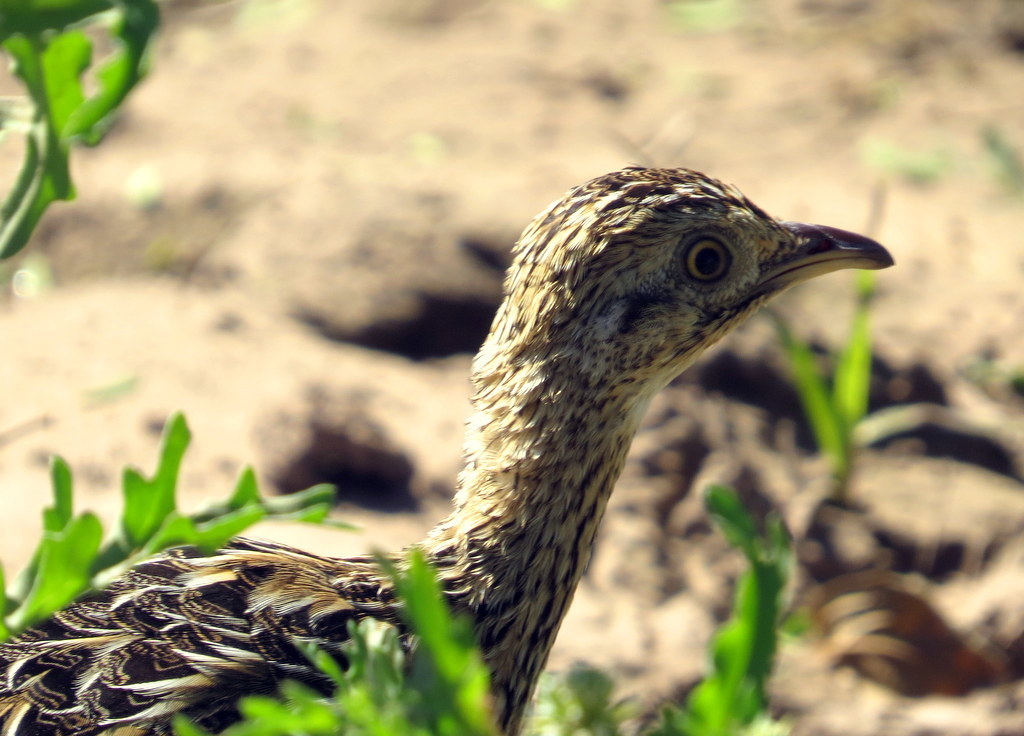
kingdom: Animalia
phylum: Chordata
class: Aves
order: Tinamiformes
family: Tinamidae
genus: Nothura
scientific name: Nothura maculosa
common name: Spotted nothura
